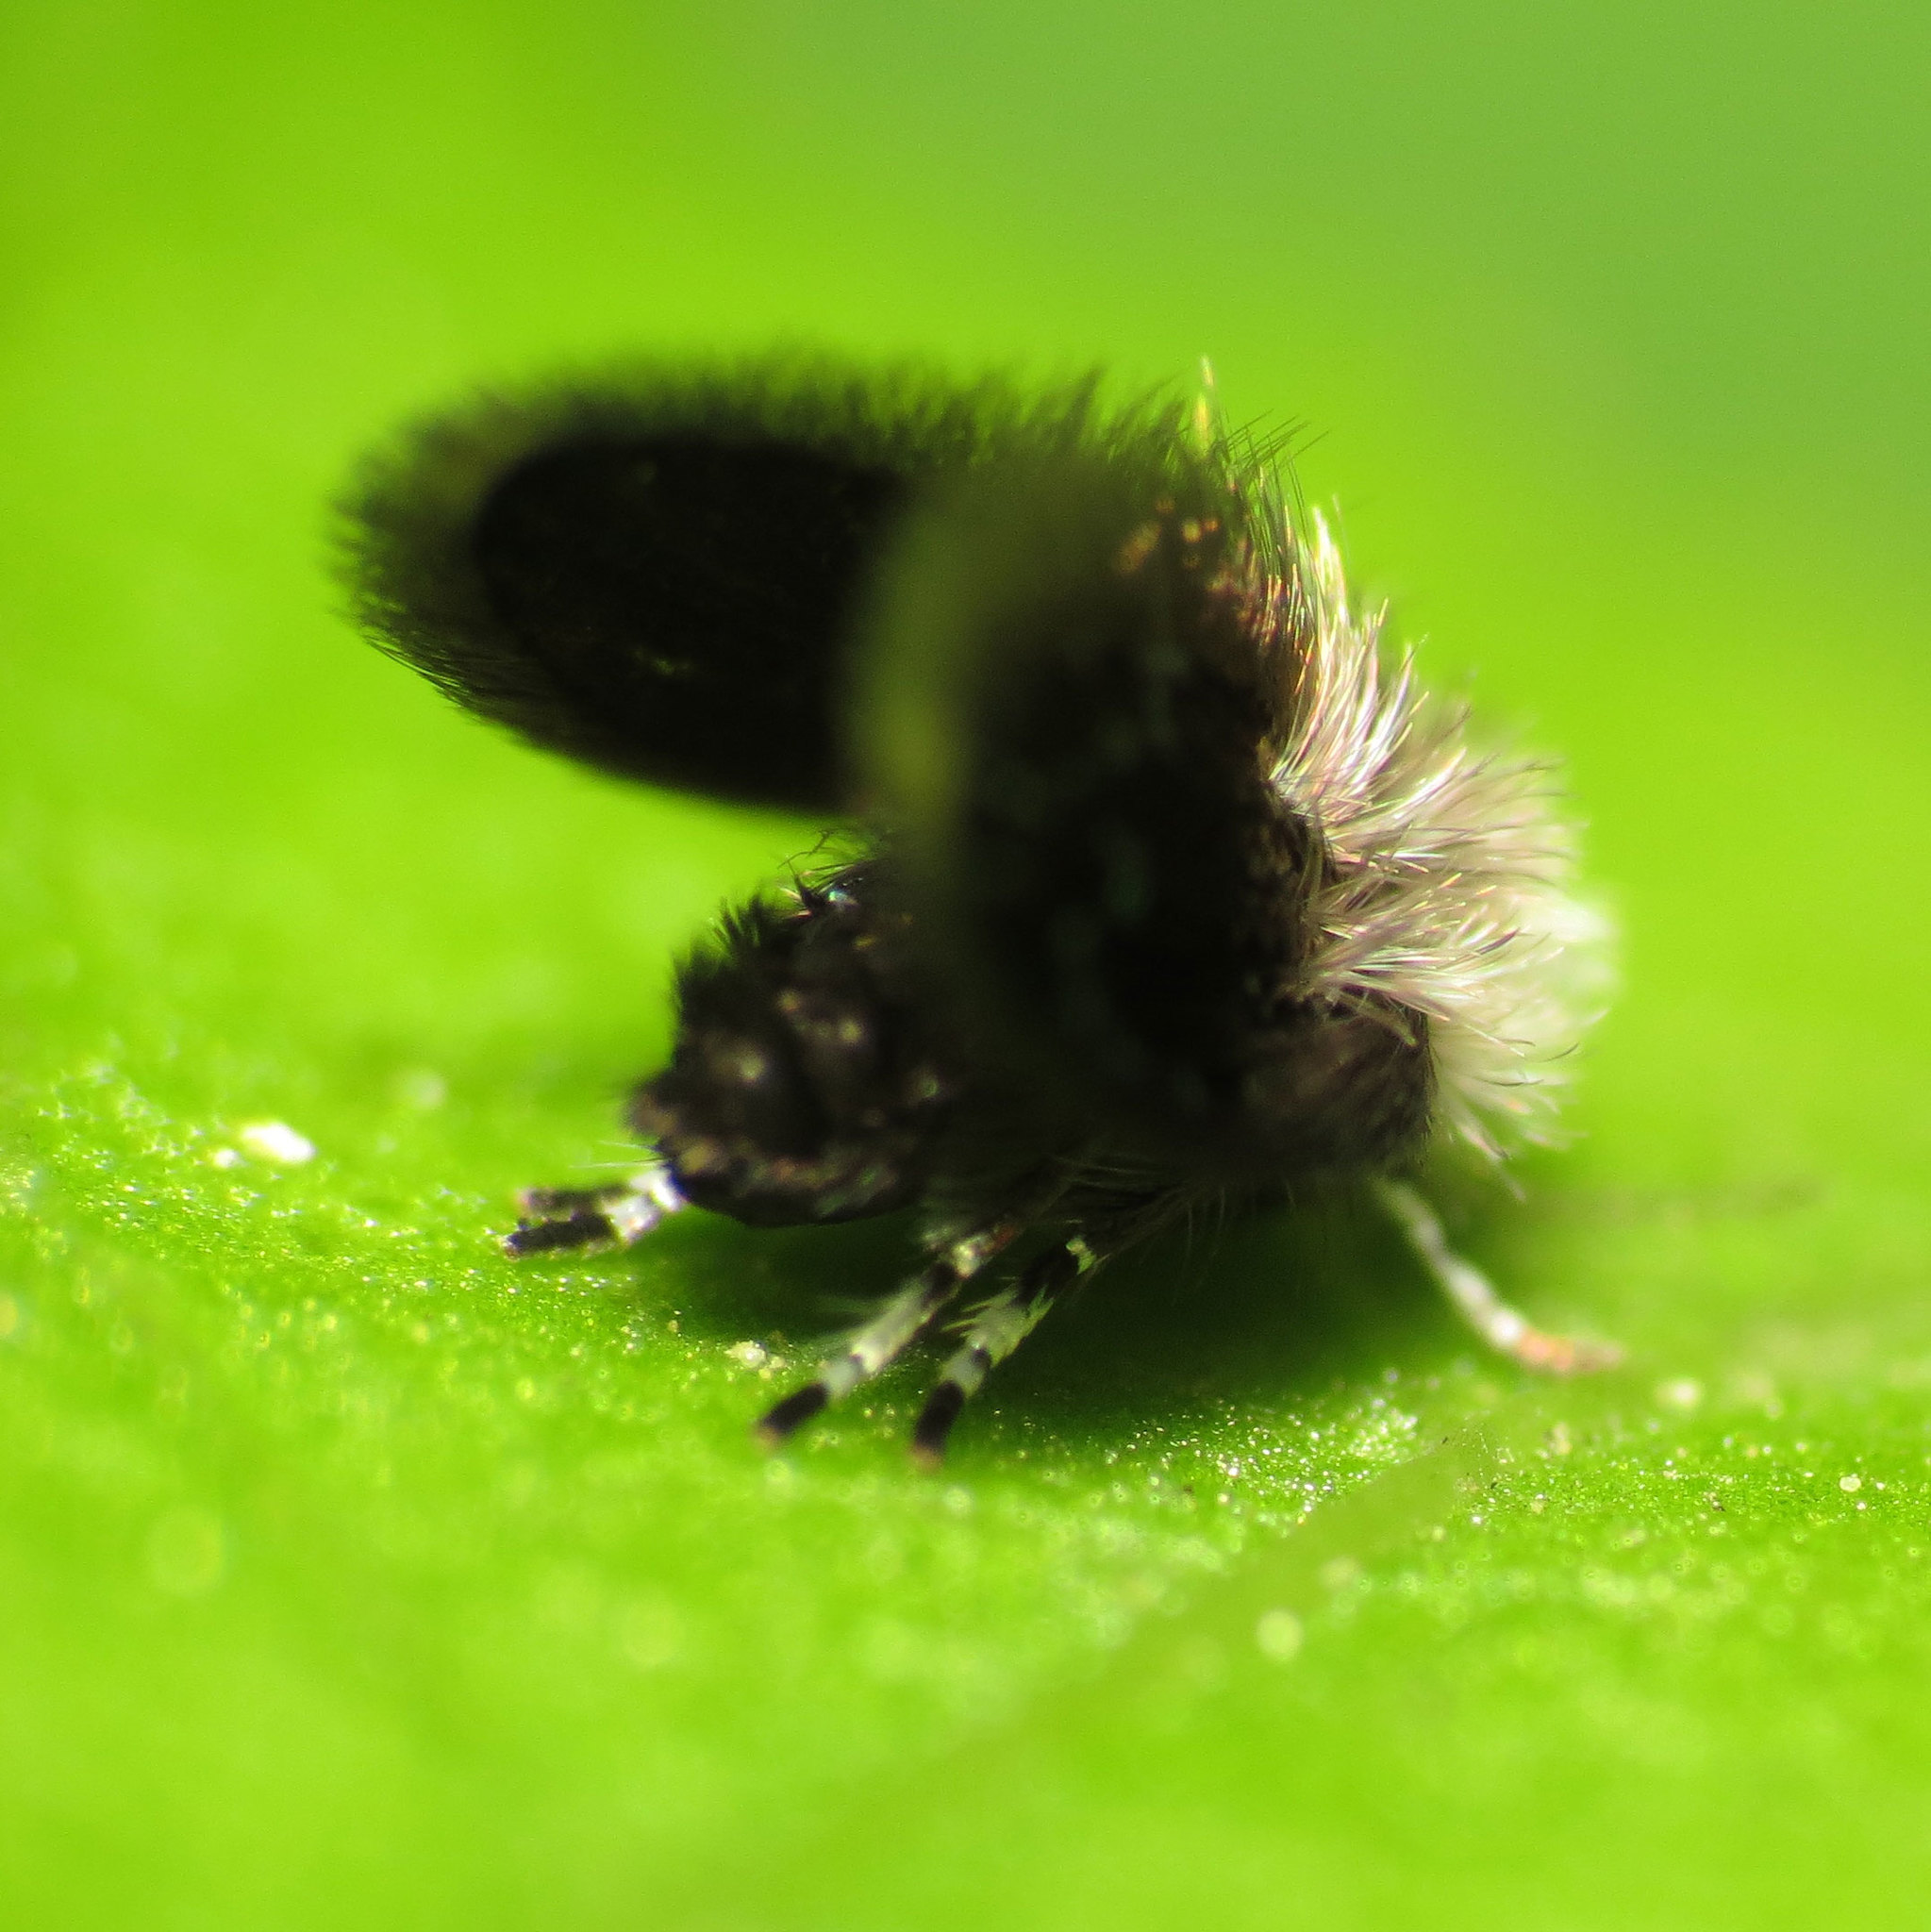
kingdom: Animalia
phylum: Arthropoda
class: Insecta
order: Diptera
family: Psychodidae
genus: Setomima
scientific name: Setomima
